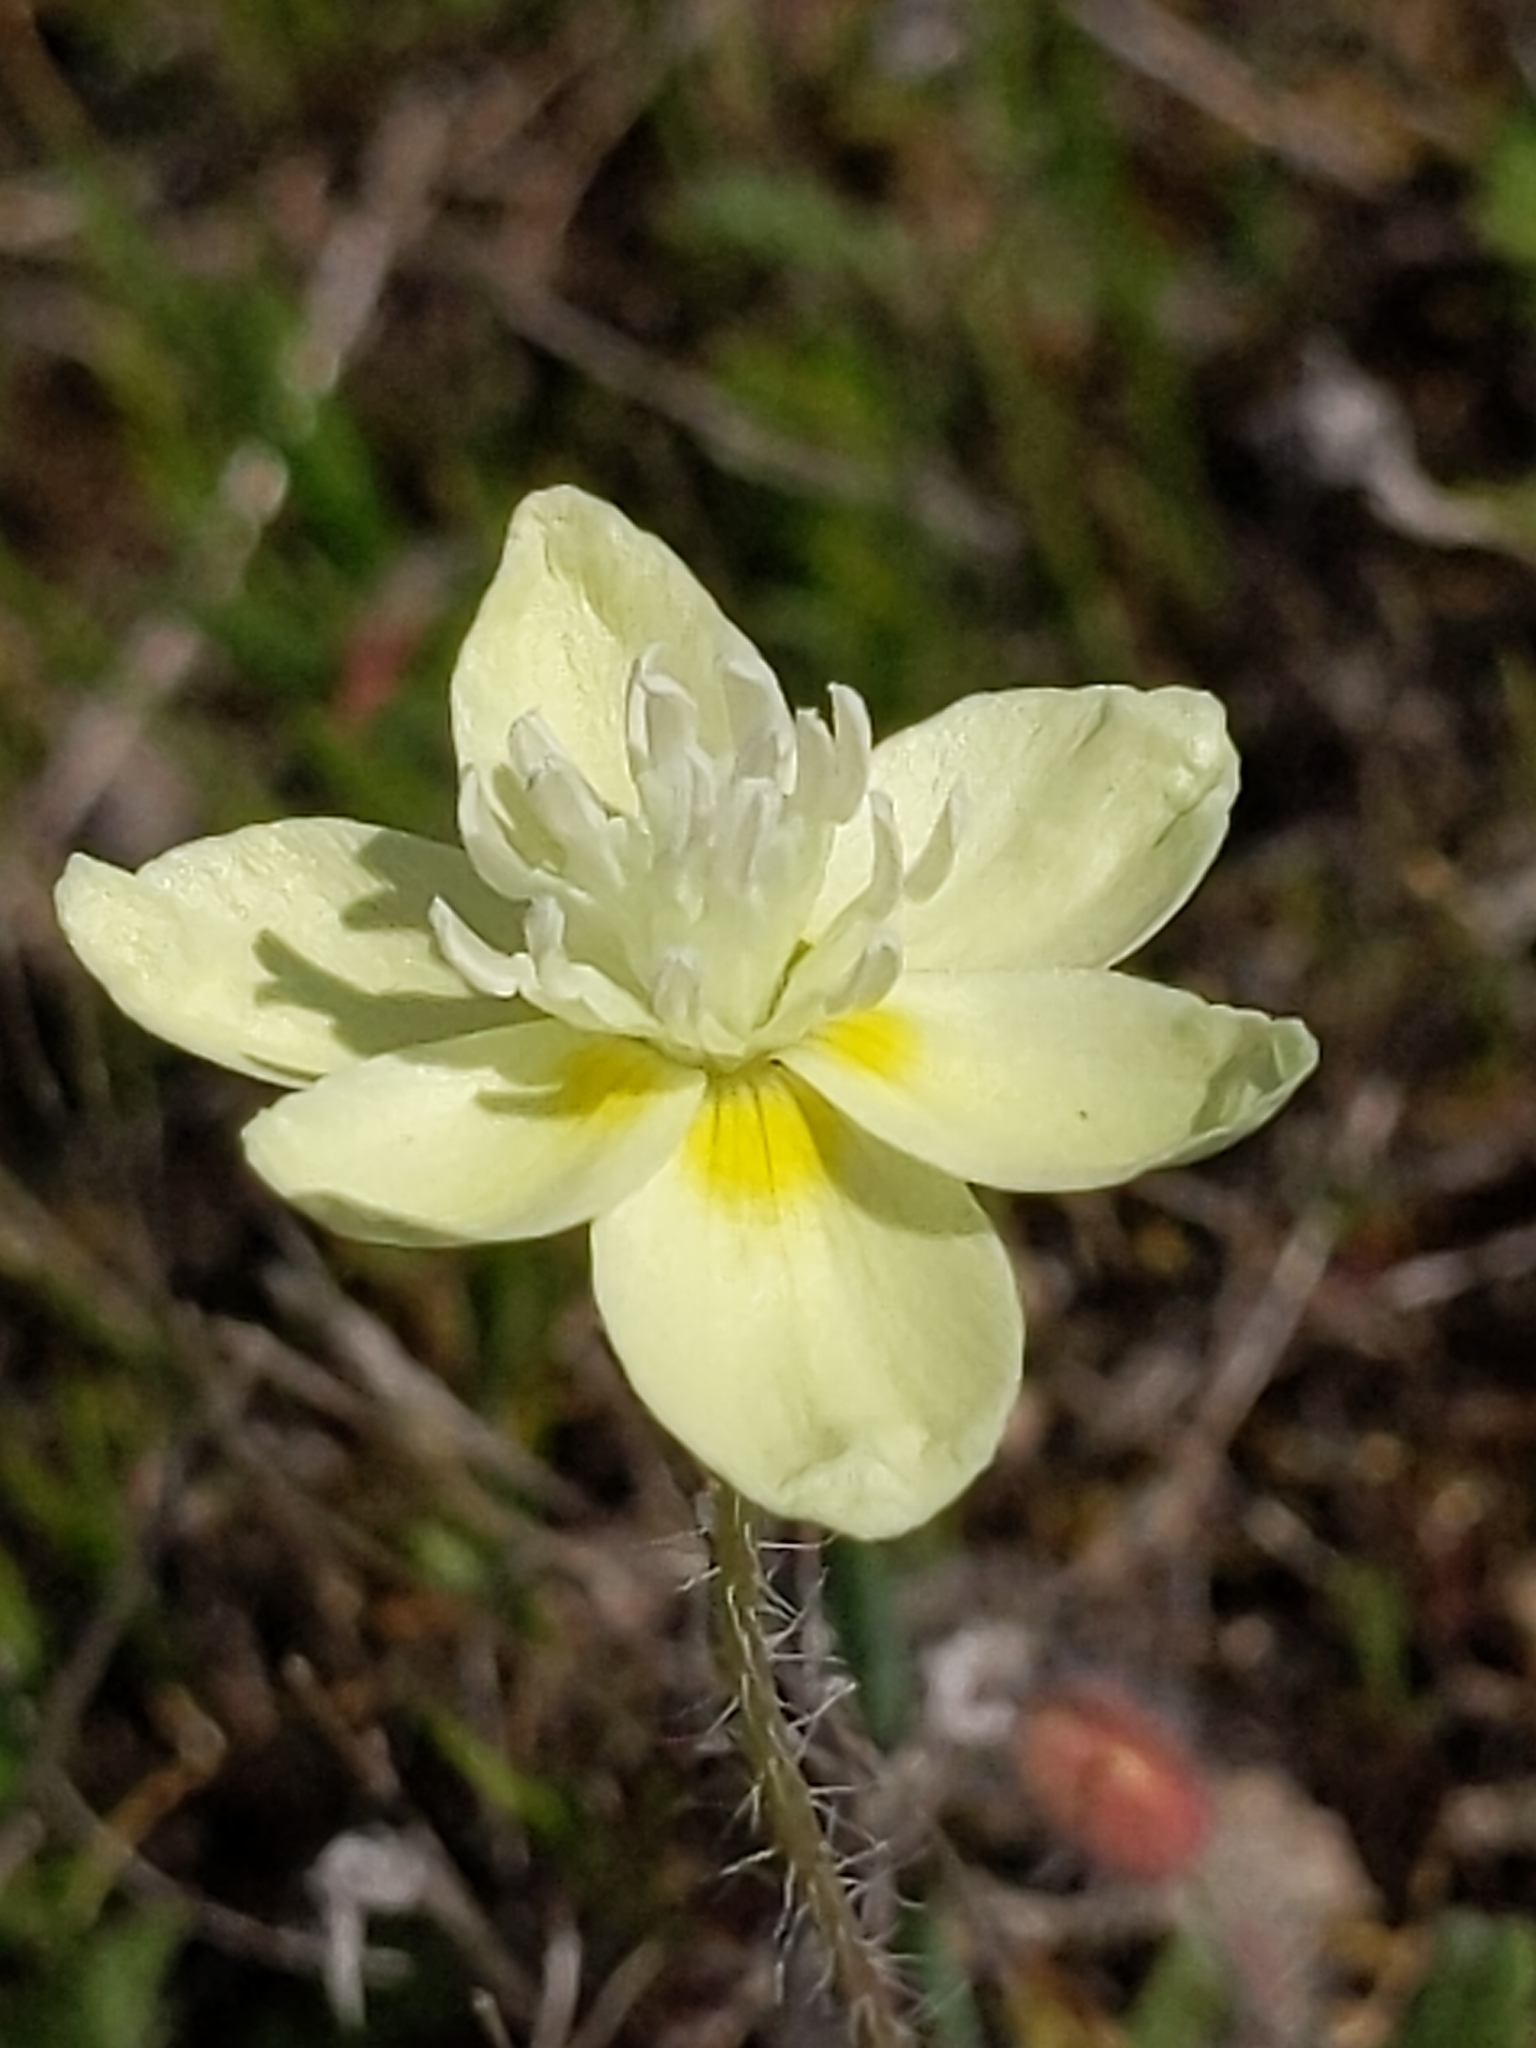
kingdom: Plantae
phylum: Tracheophyta
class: Magnoliopsida
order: Ranunculales
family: Papaveraceae
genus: Platystemon
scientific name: Platystemon californicus
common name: Cream-cups
